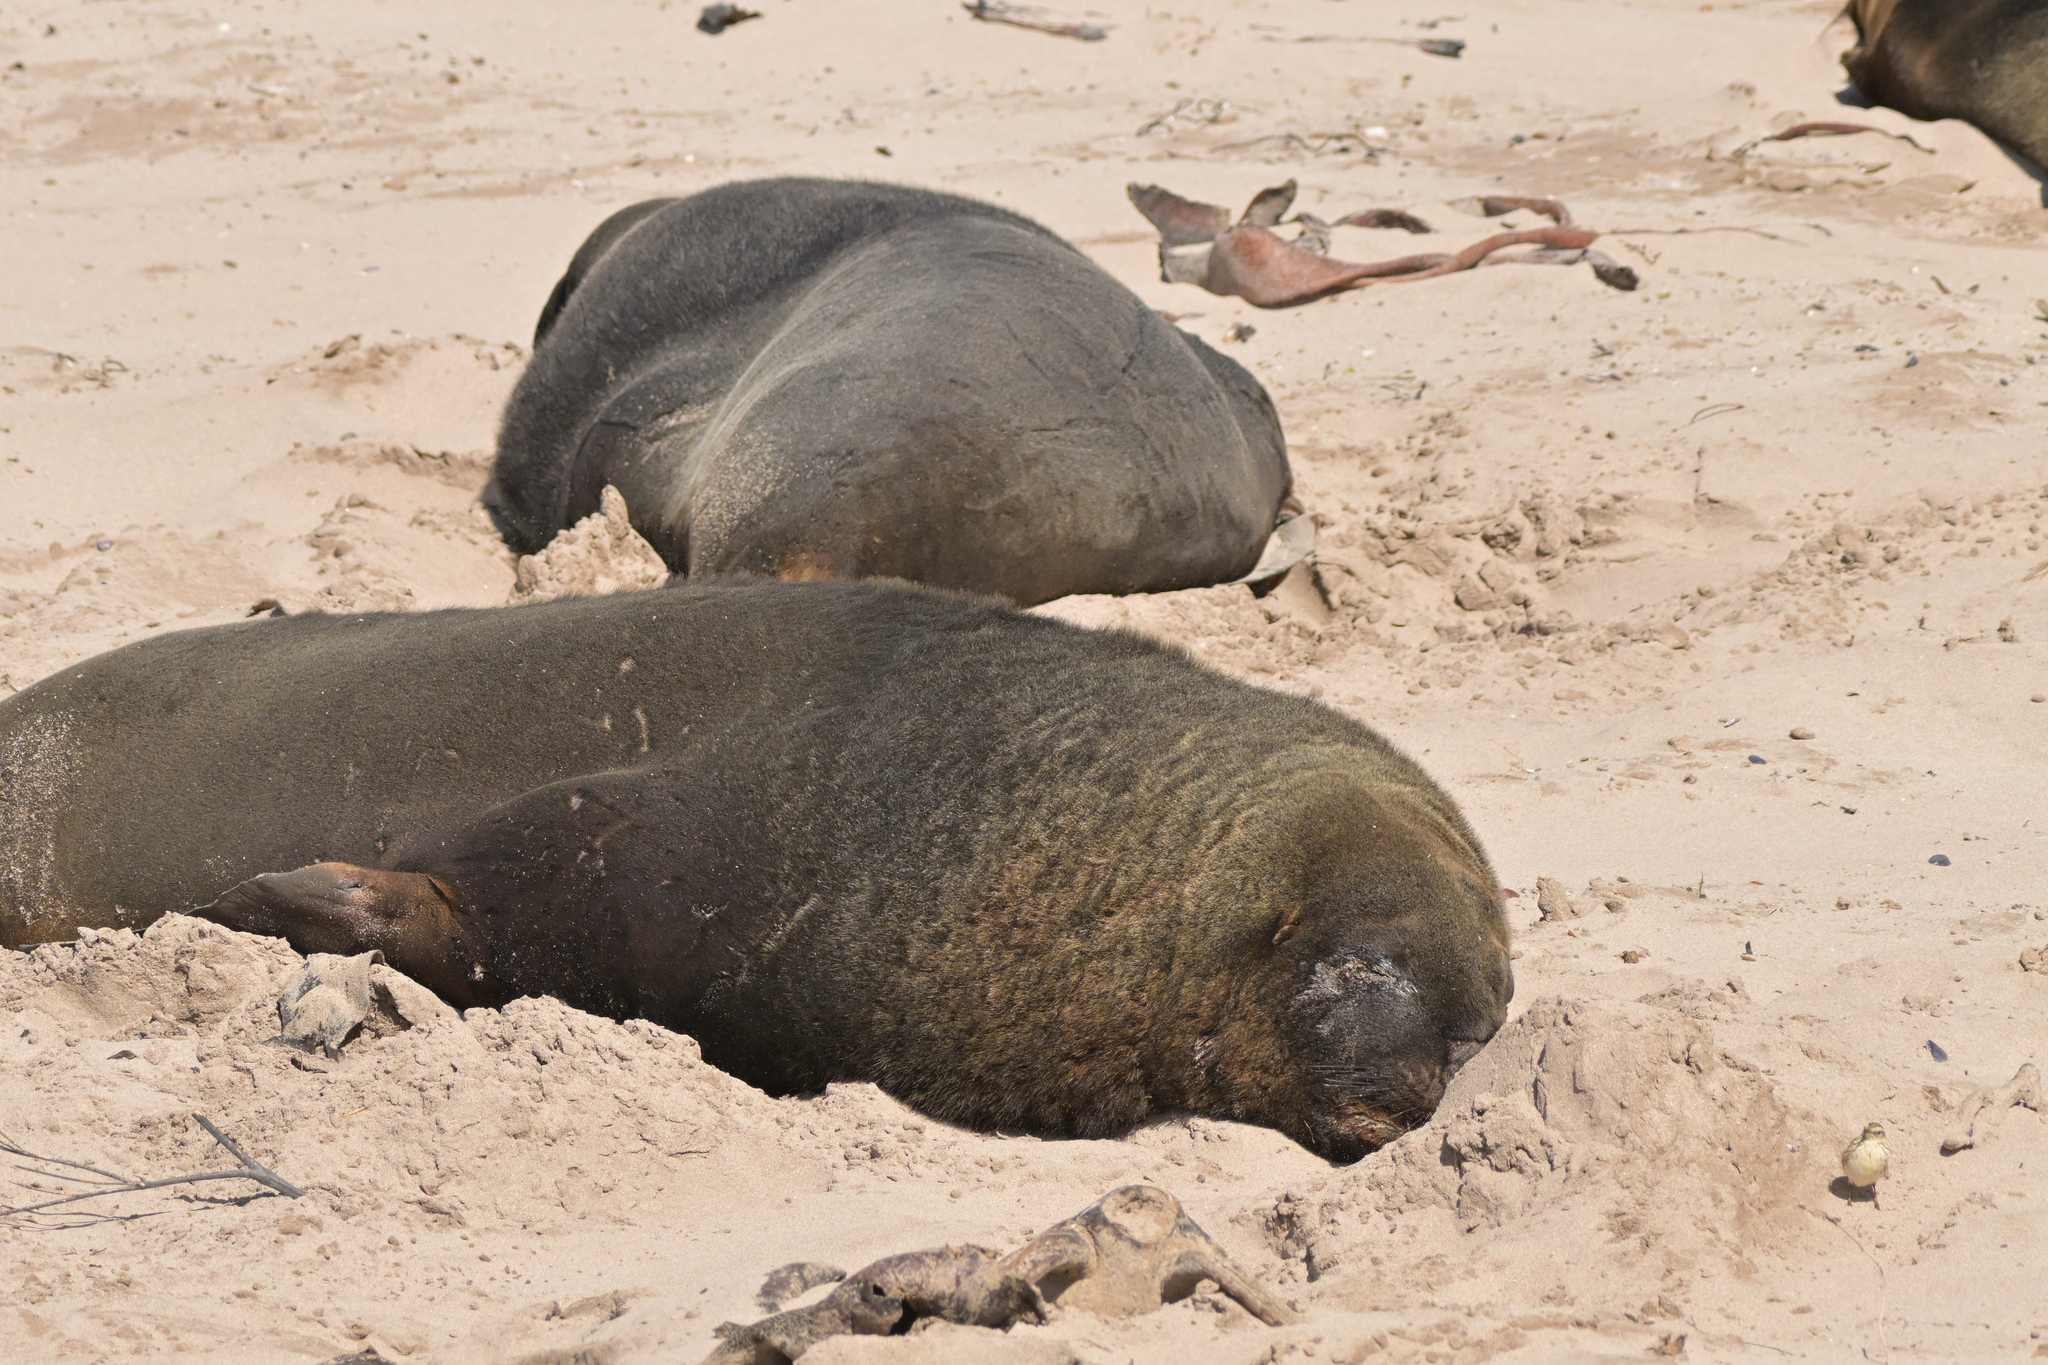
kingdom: Animalia
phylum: Chordata
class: Mammalia
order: Carnivora
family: Otariidae
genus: Phocarctos
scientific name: Phocarctos hookeri
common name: New zealand sea lion
